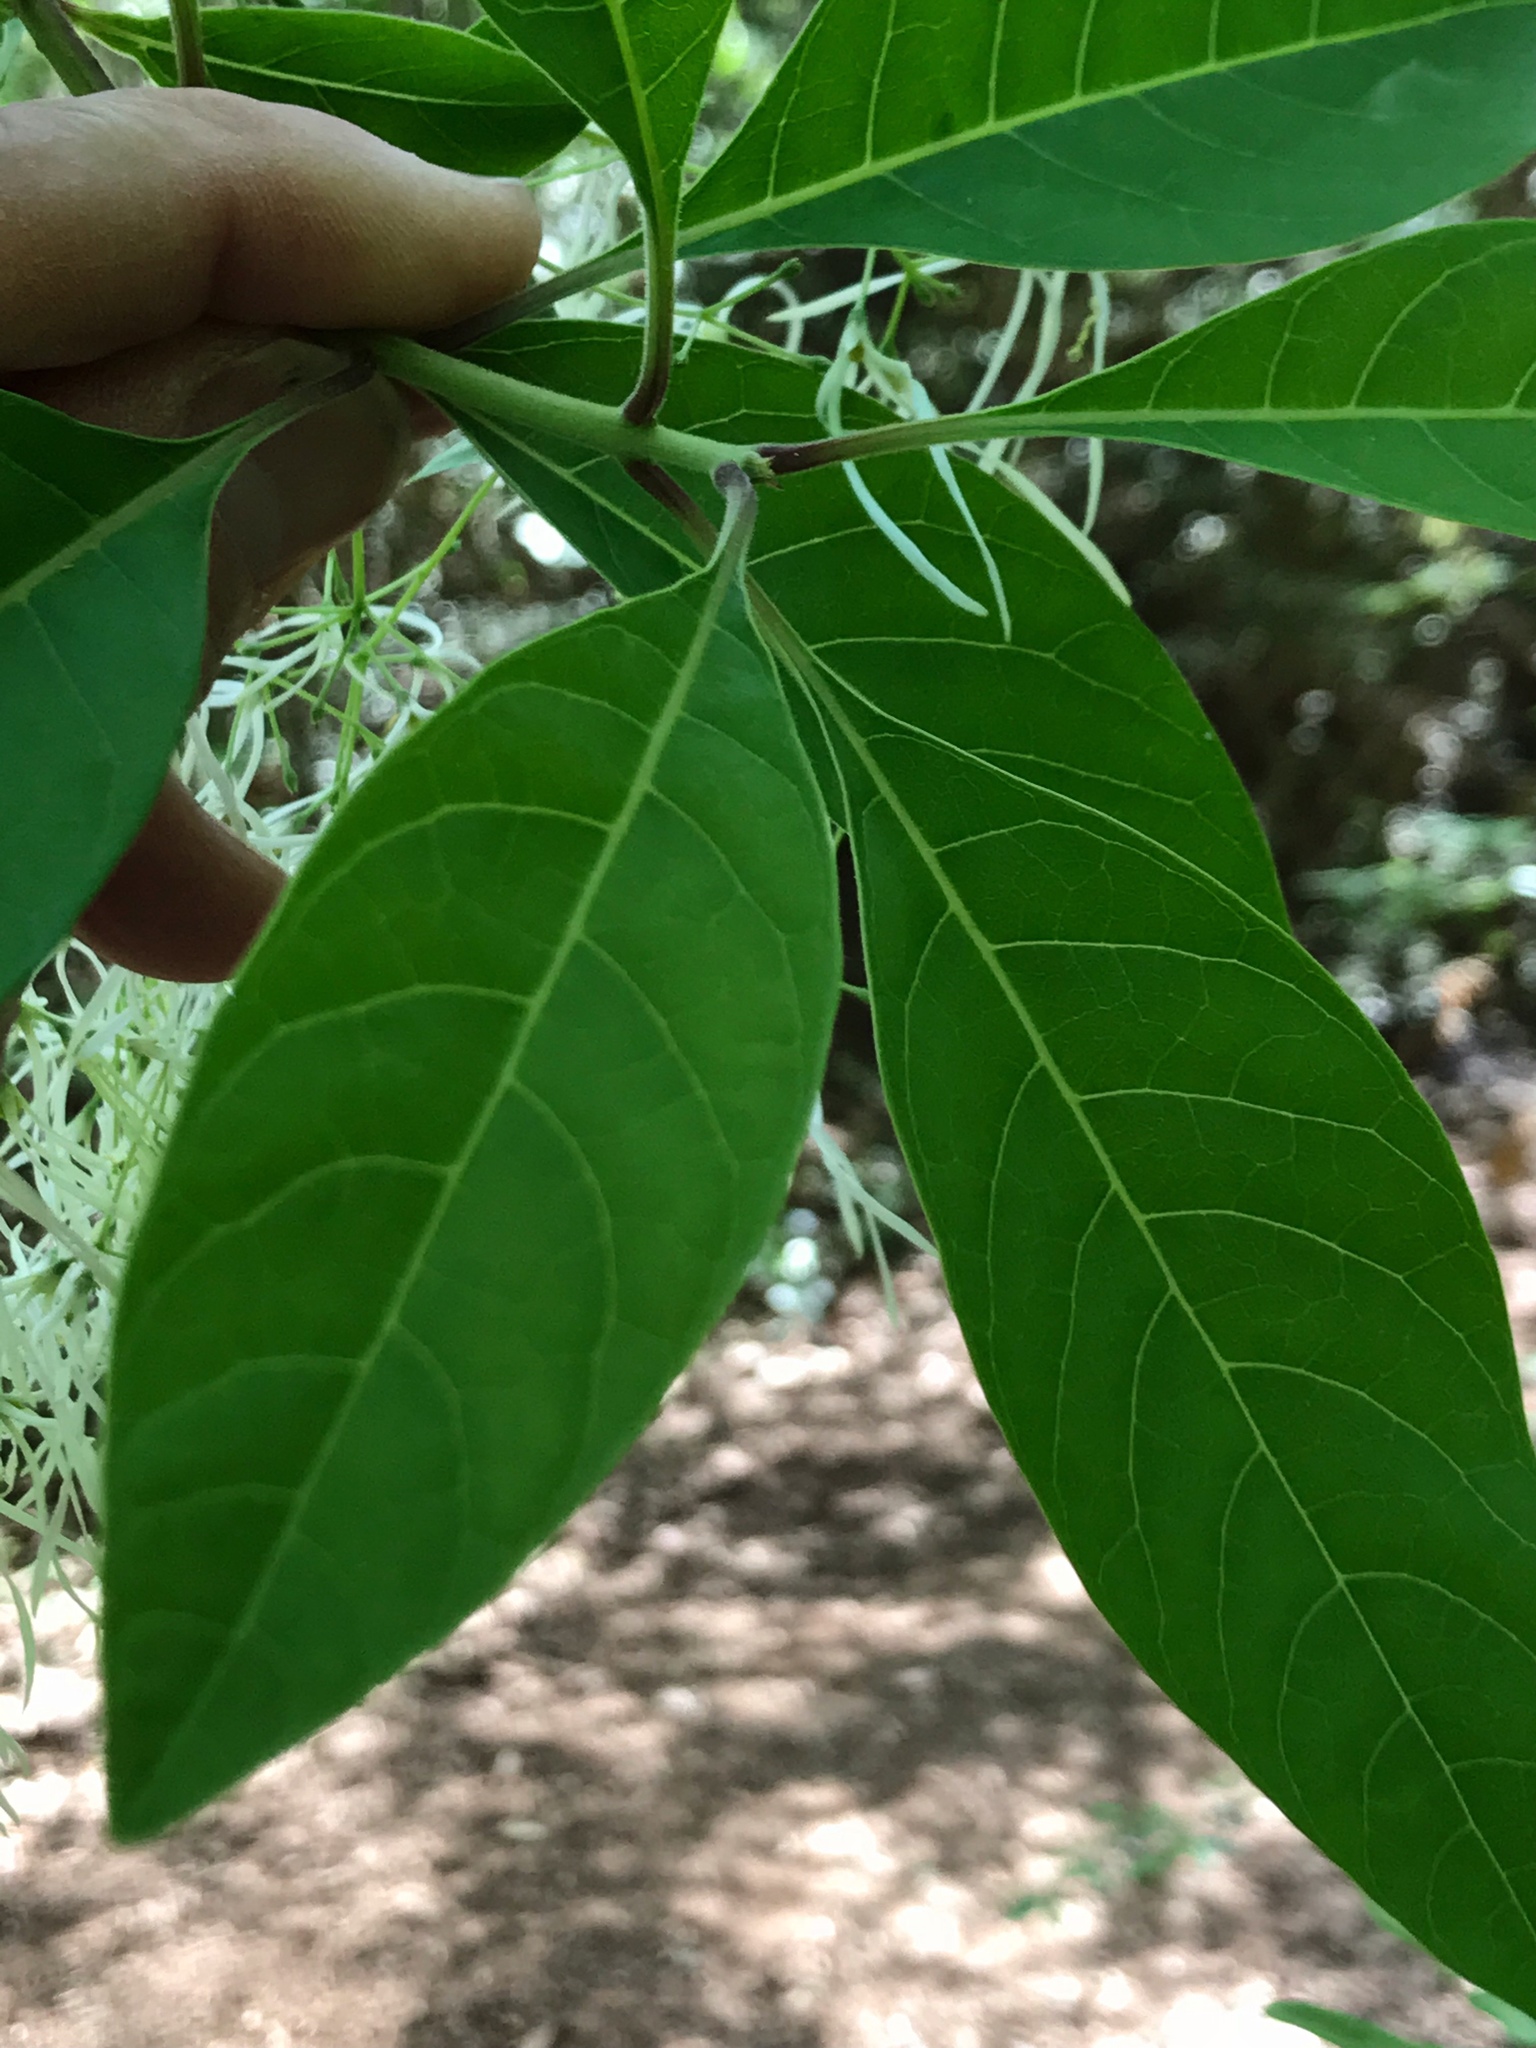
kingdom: Plantae
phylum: Tracheophyta
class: Magnoliopsida
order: Lamiales
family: Oleaceae
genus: Chionanthus
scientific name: Chionanthus virginicus
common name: American fringetree
